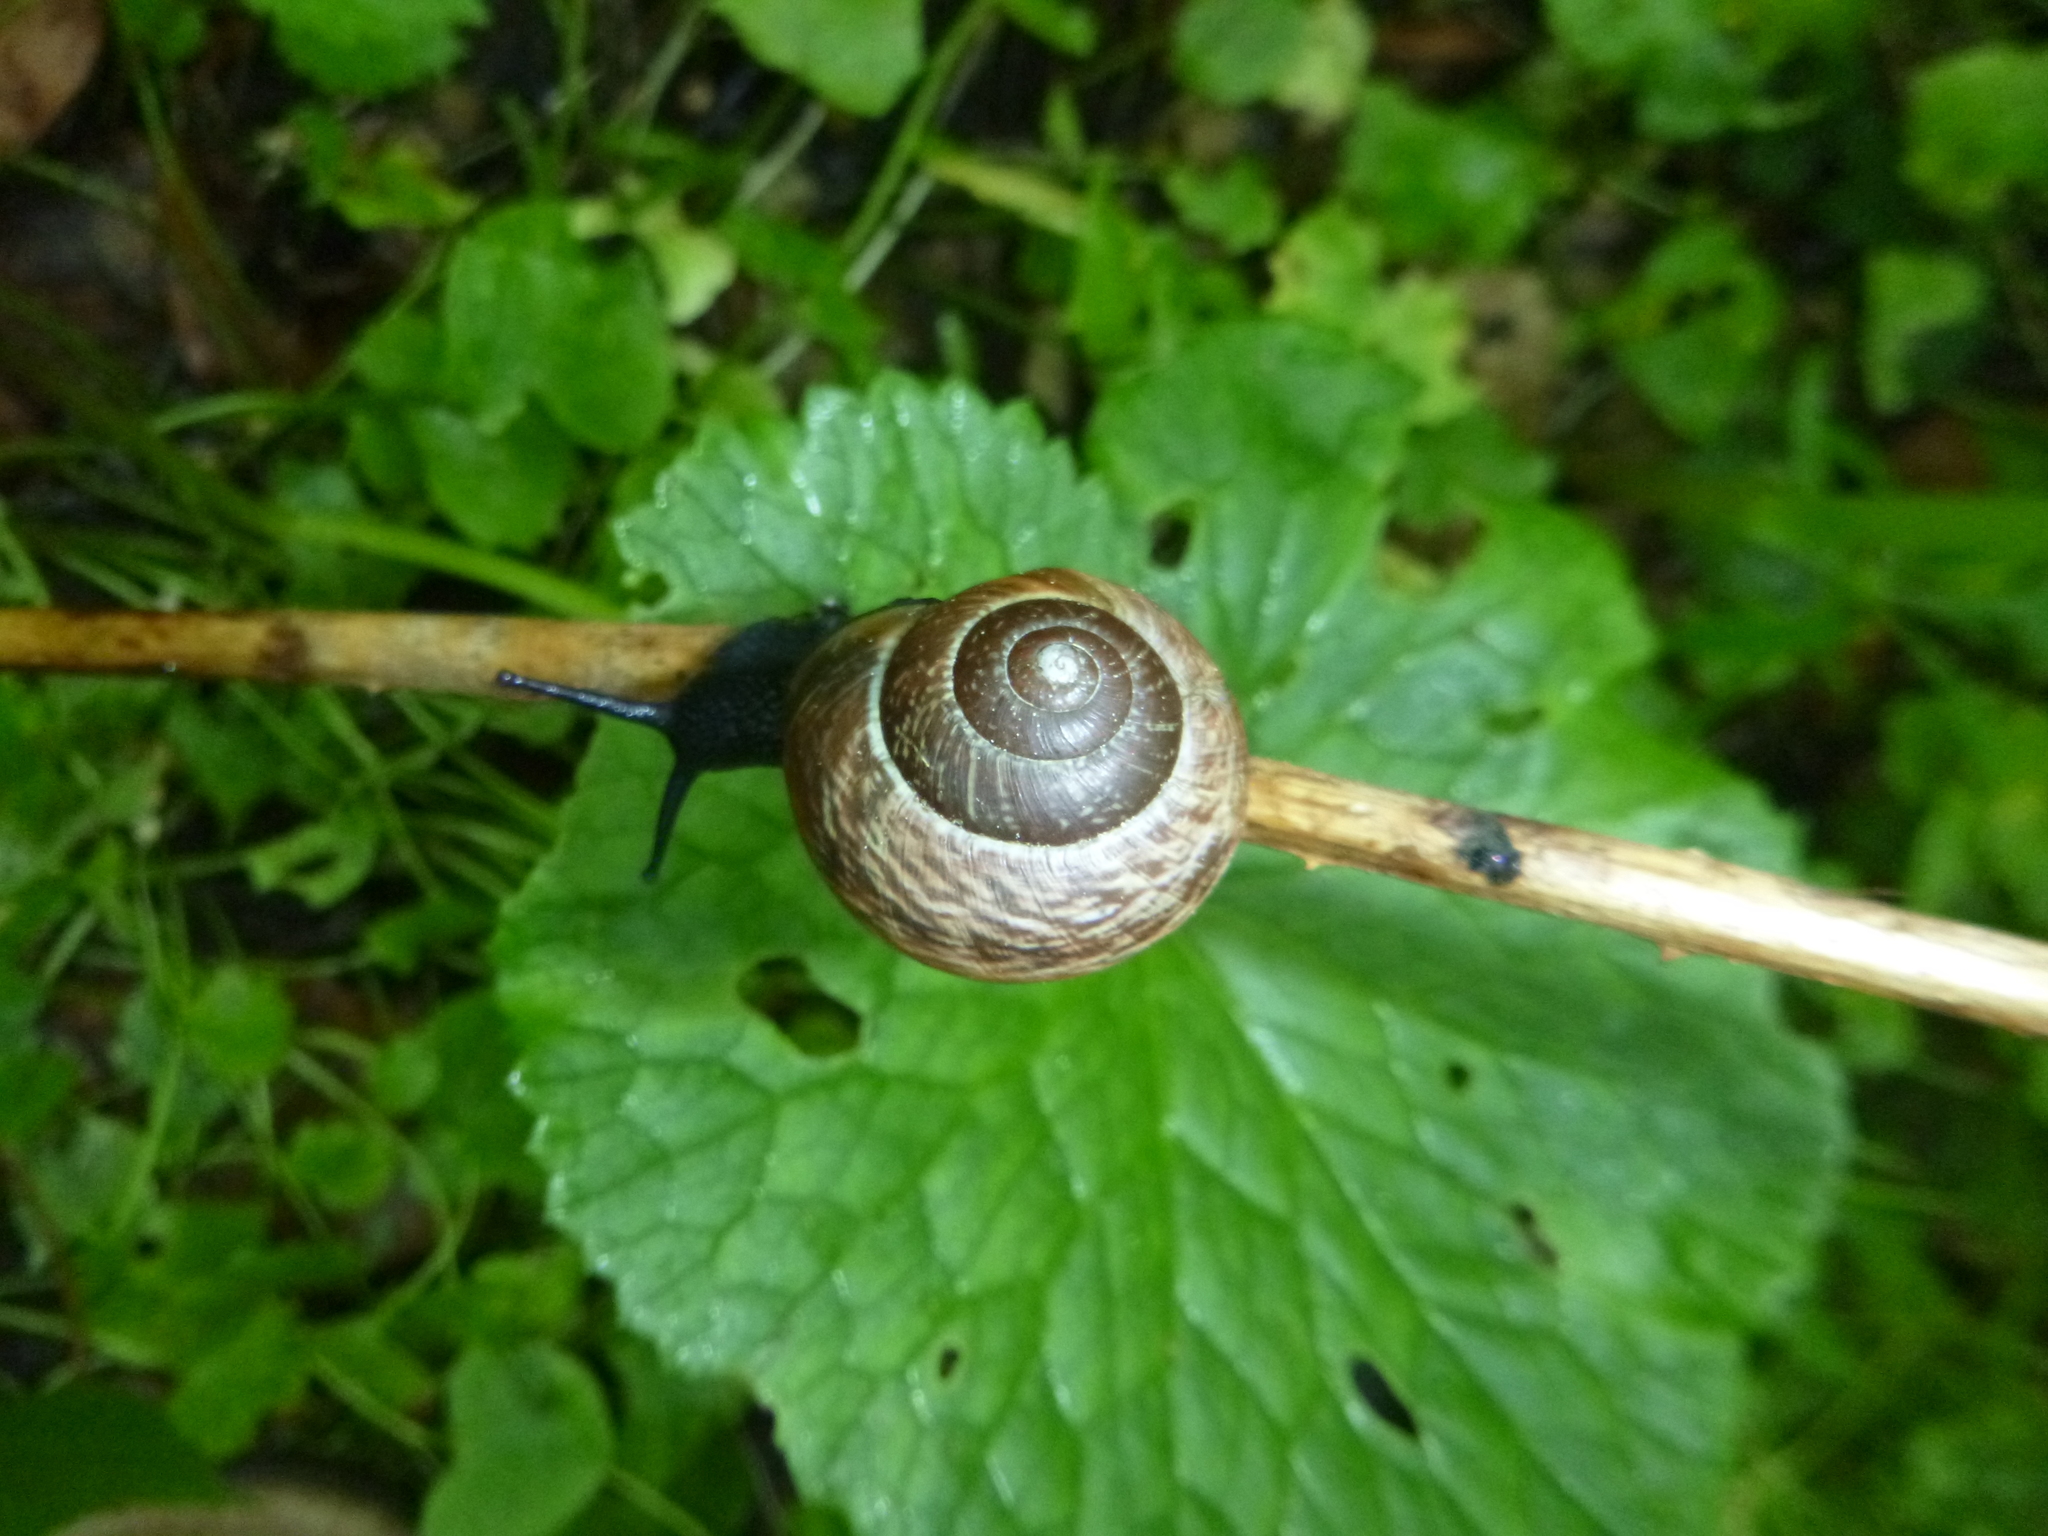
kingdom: Animalia
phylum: Mollusca
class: Gastropoda
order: Stylommatophora
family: Helicidae
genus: Arianta
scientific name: Arianta arbustorum
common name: Copse snail
